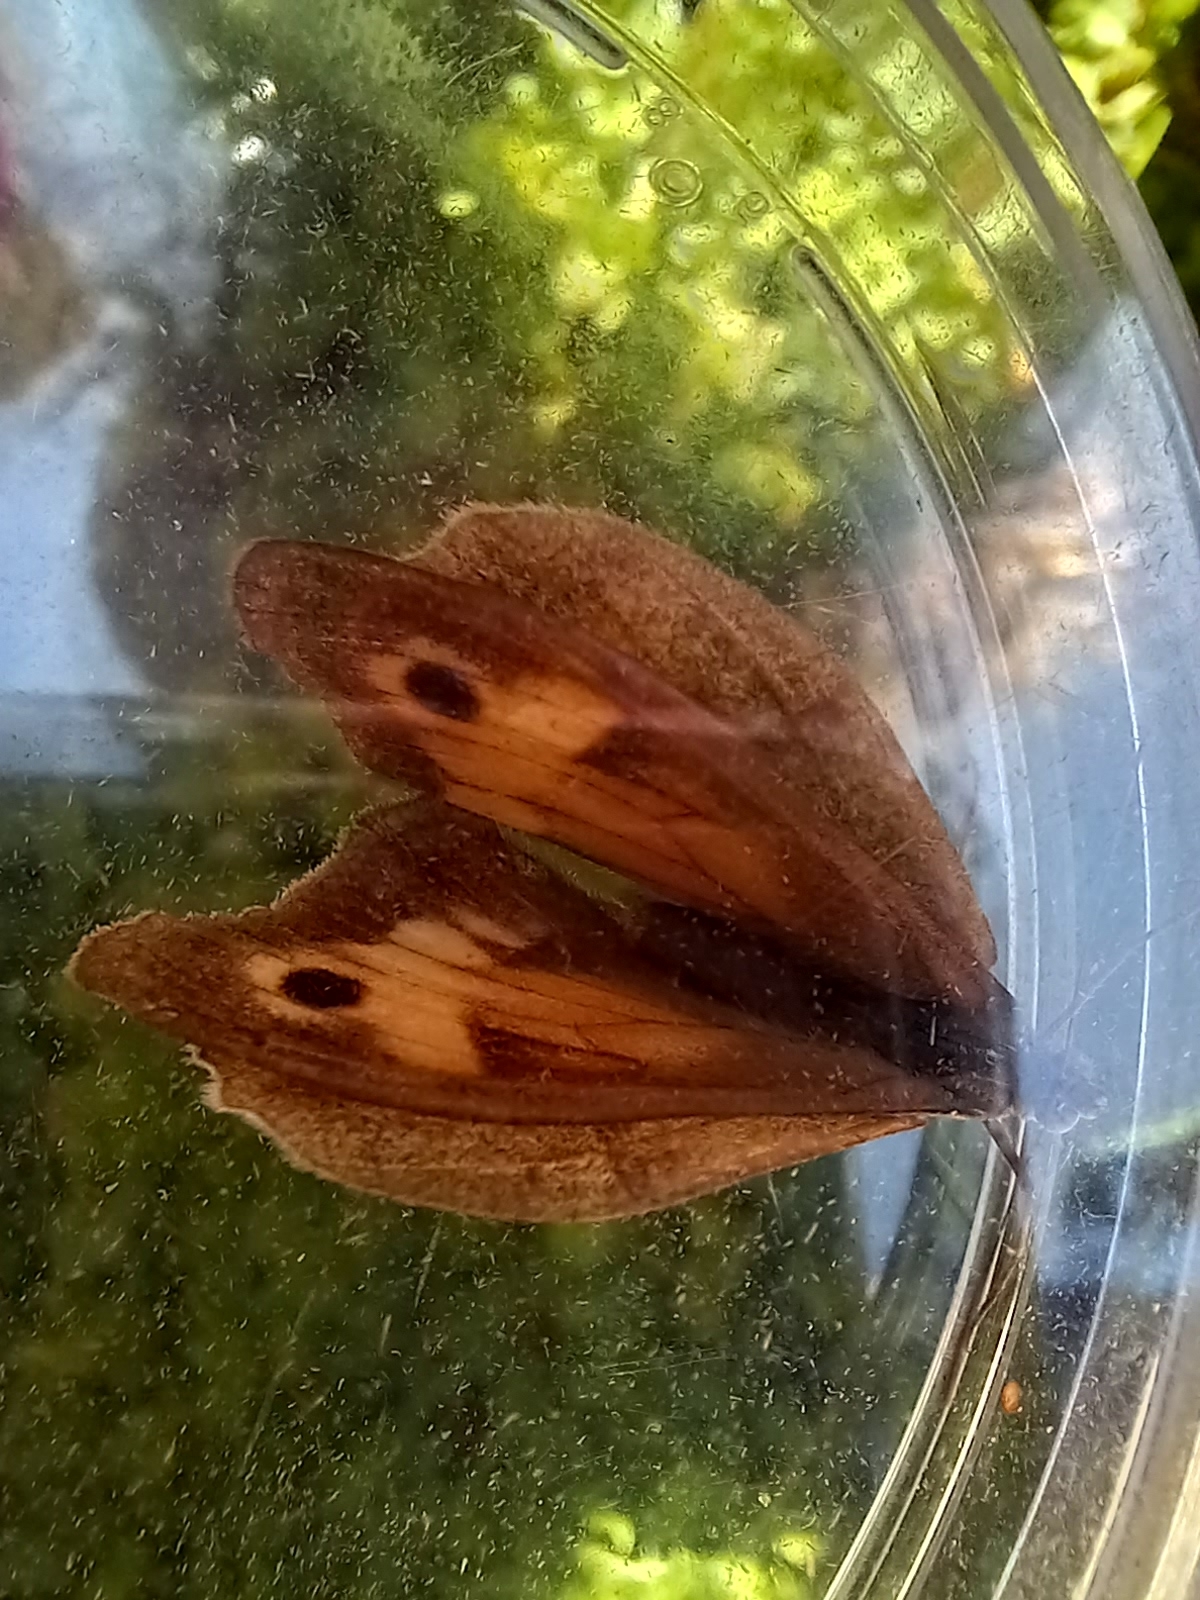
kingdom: Animalia
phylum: Arthropoda
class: Insecta
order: Lepidoptera
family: Nymphalidae
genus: Maniola
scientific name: Maniola jurtina
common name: Meadow brown
